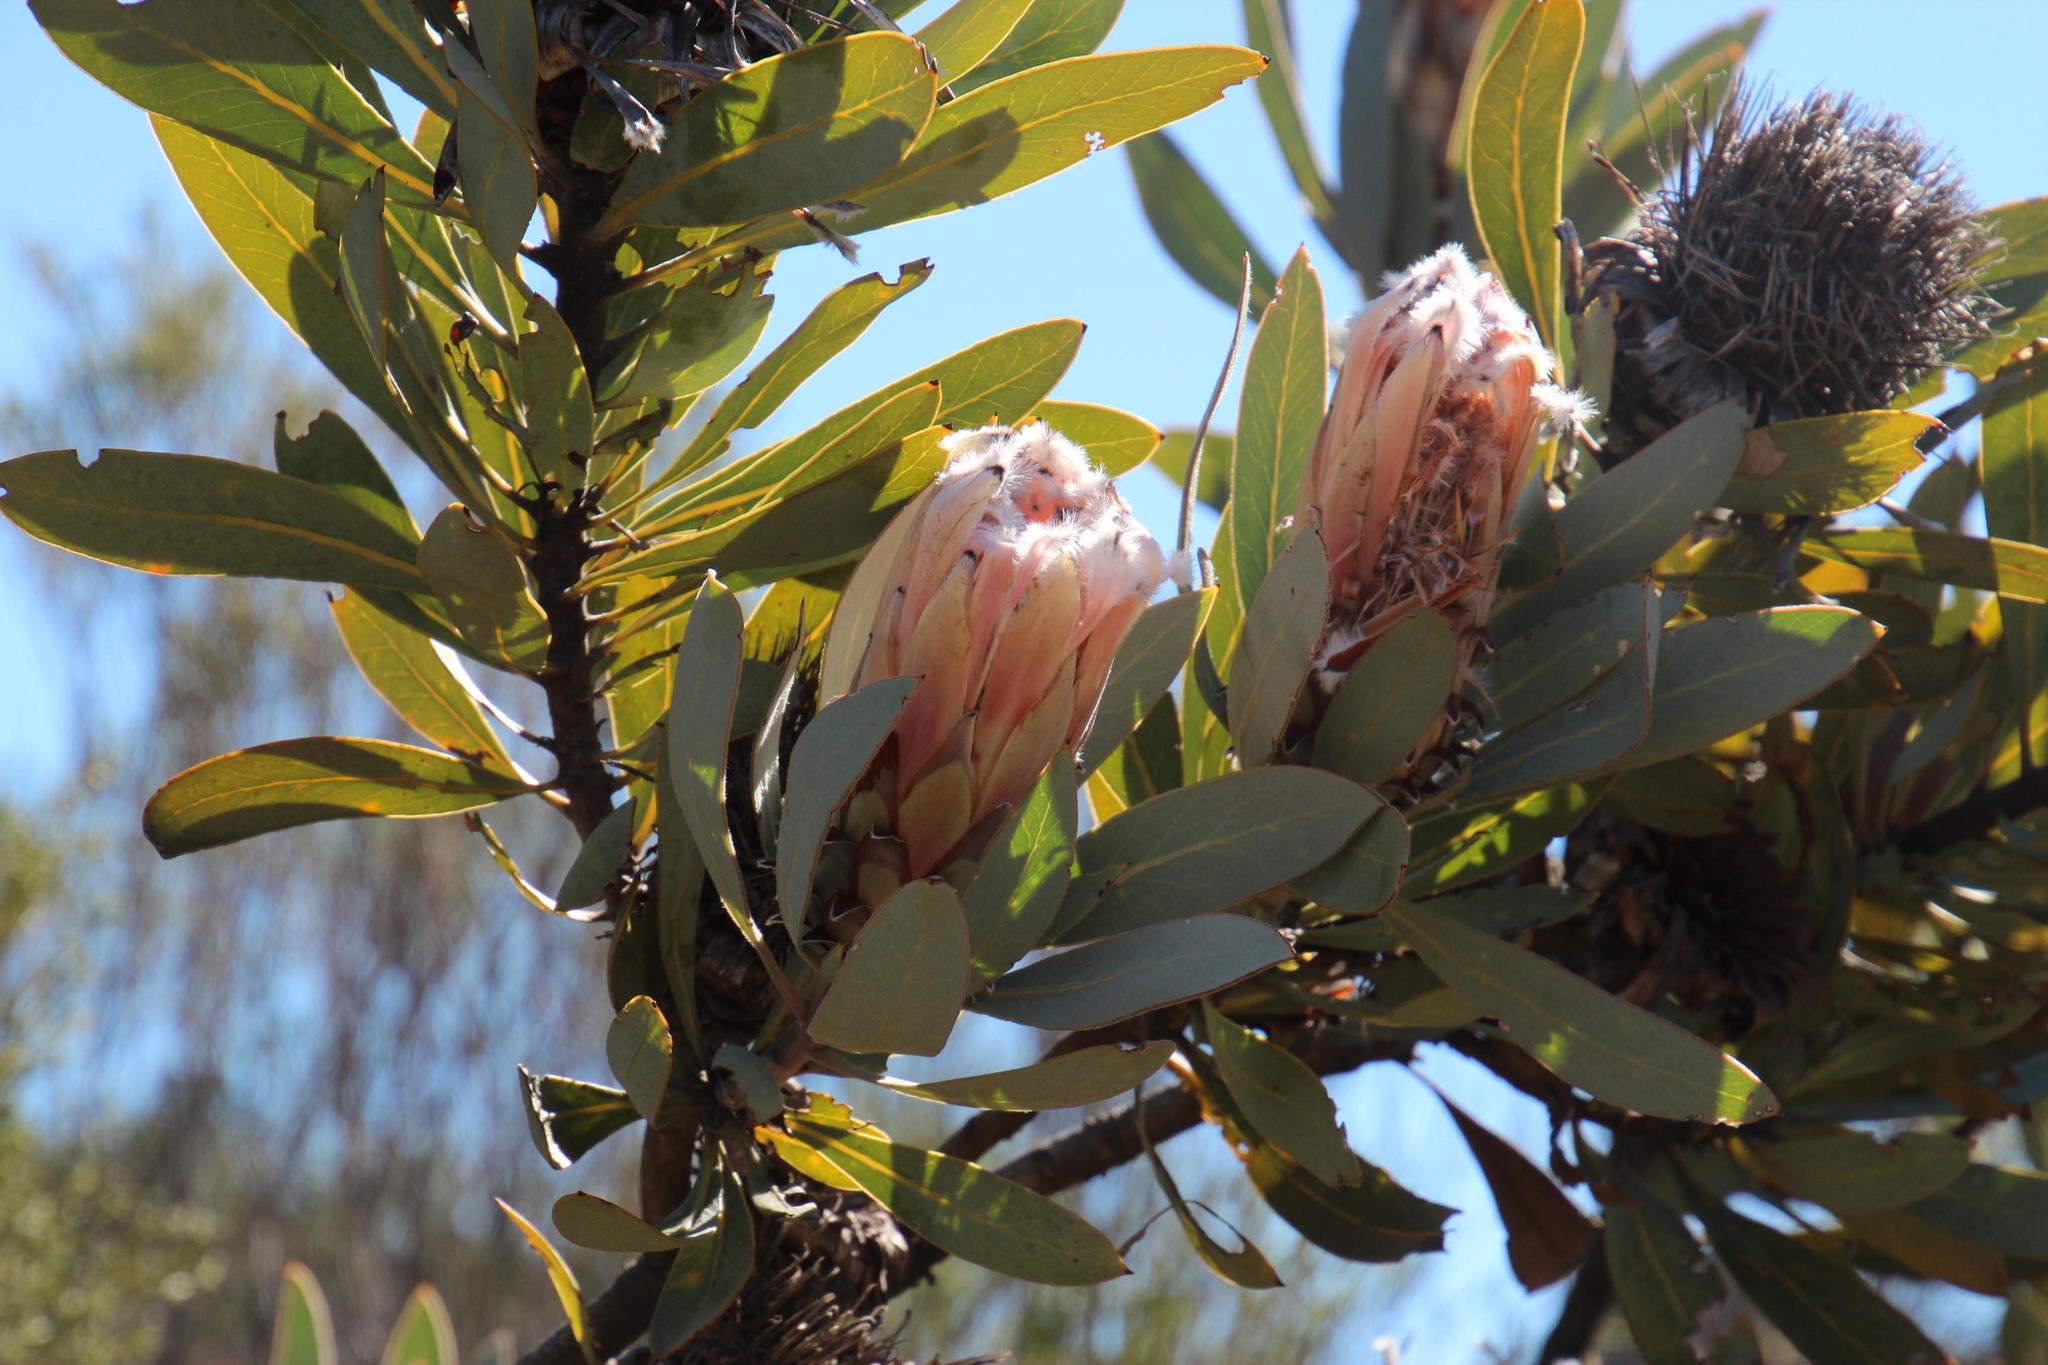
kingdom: Plantae
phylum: Tracheophyta
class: Magnoliopsida
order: Proteales
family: Proteaceae
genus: Protea
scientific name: Protea laurifolia
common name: Grey-leaf sugarbsh
